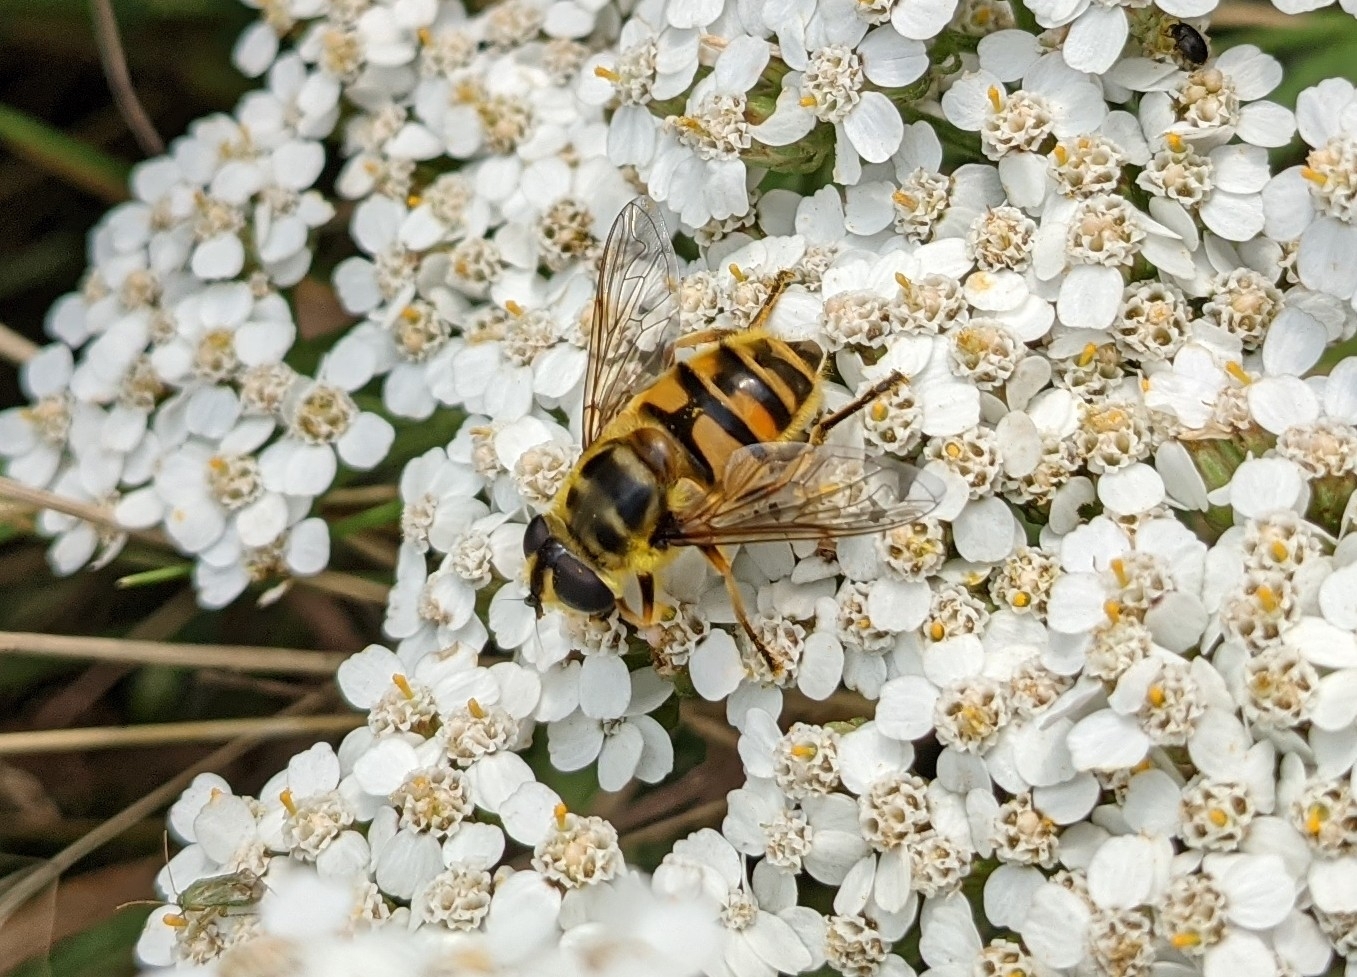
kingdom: Animalia
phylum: Arthropoda
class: Insecta
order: Diptera
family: Syrphidae
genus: Myathropa
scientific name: Myathropa florea
